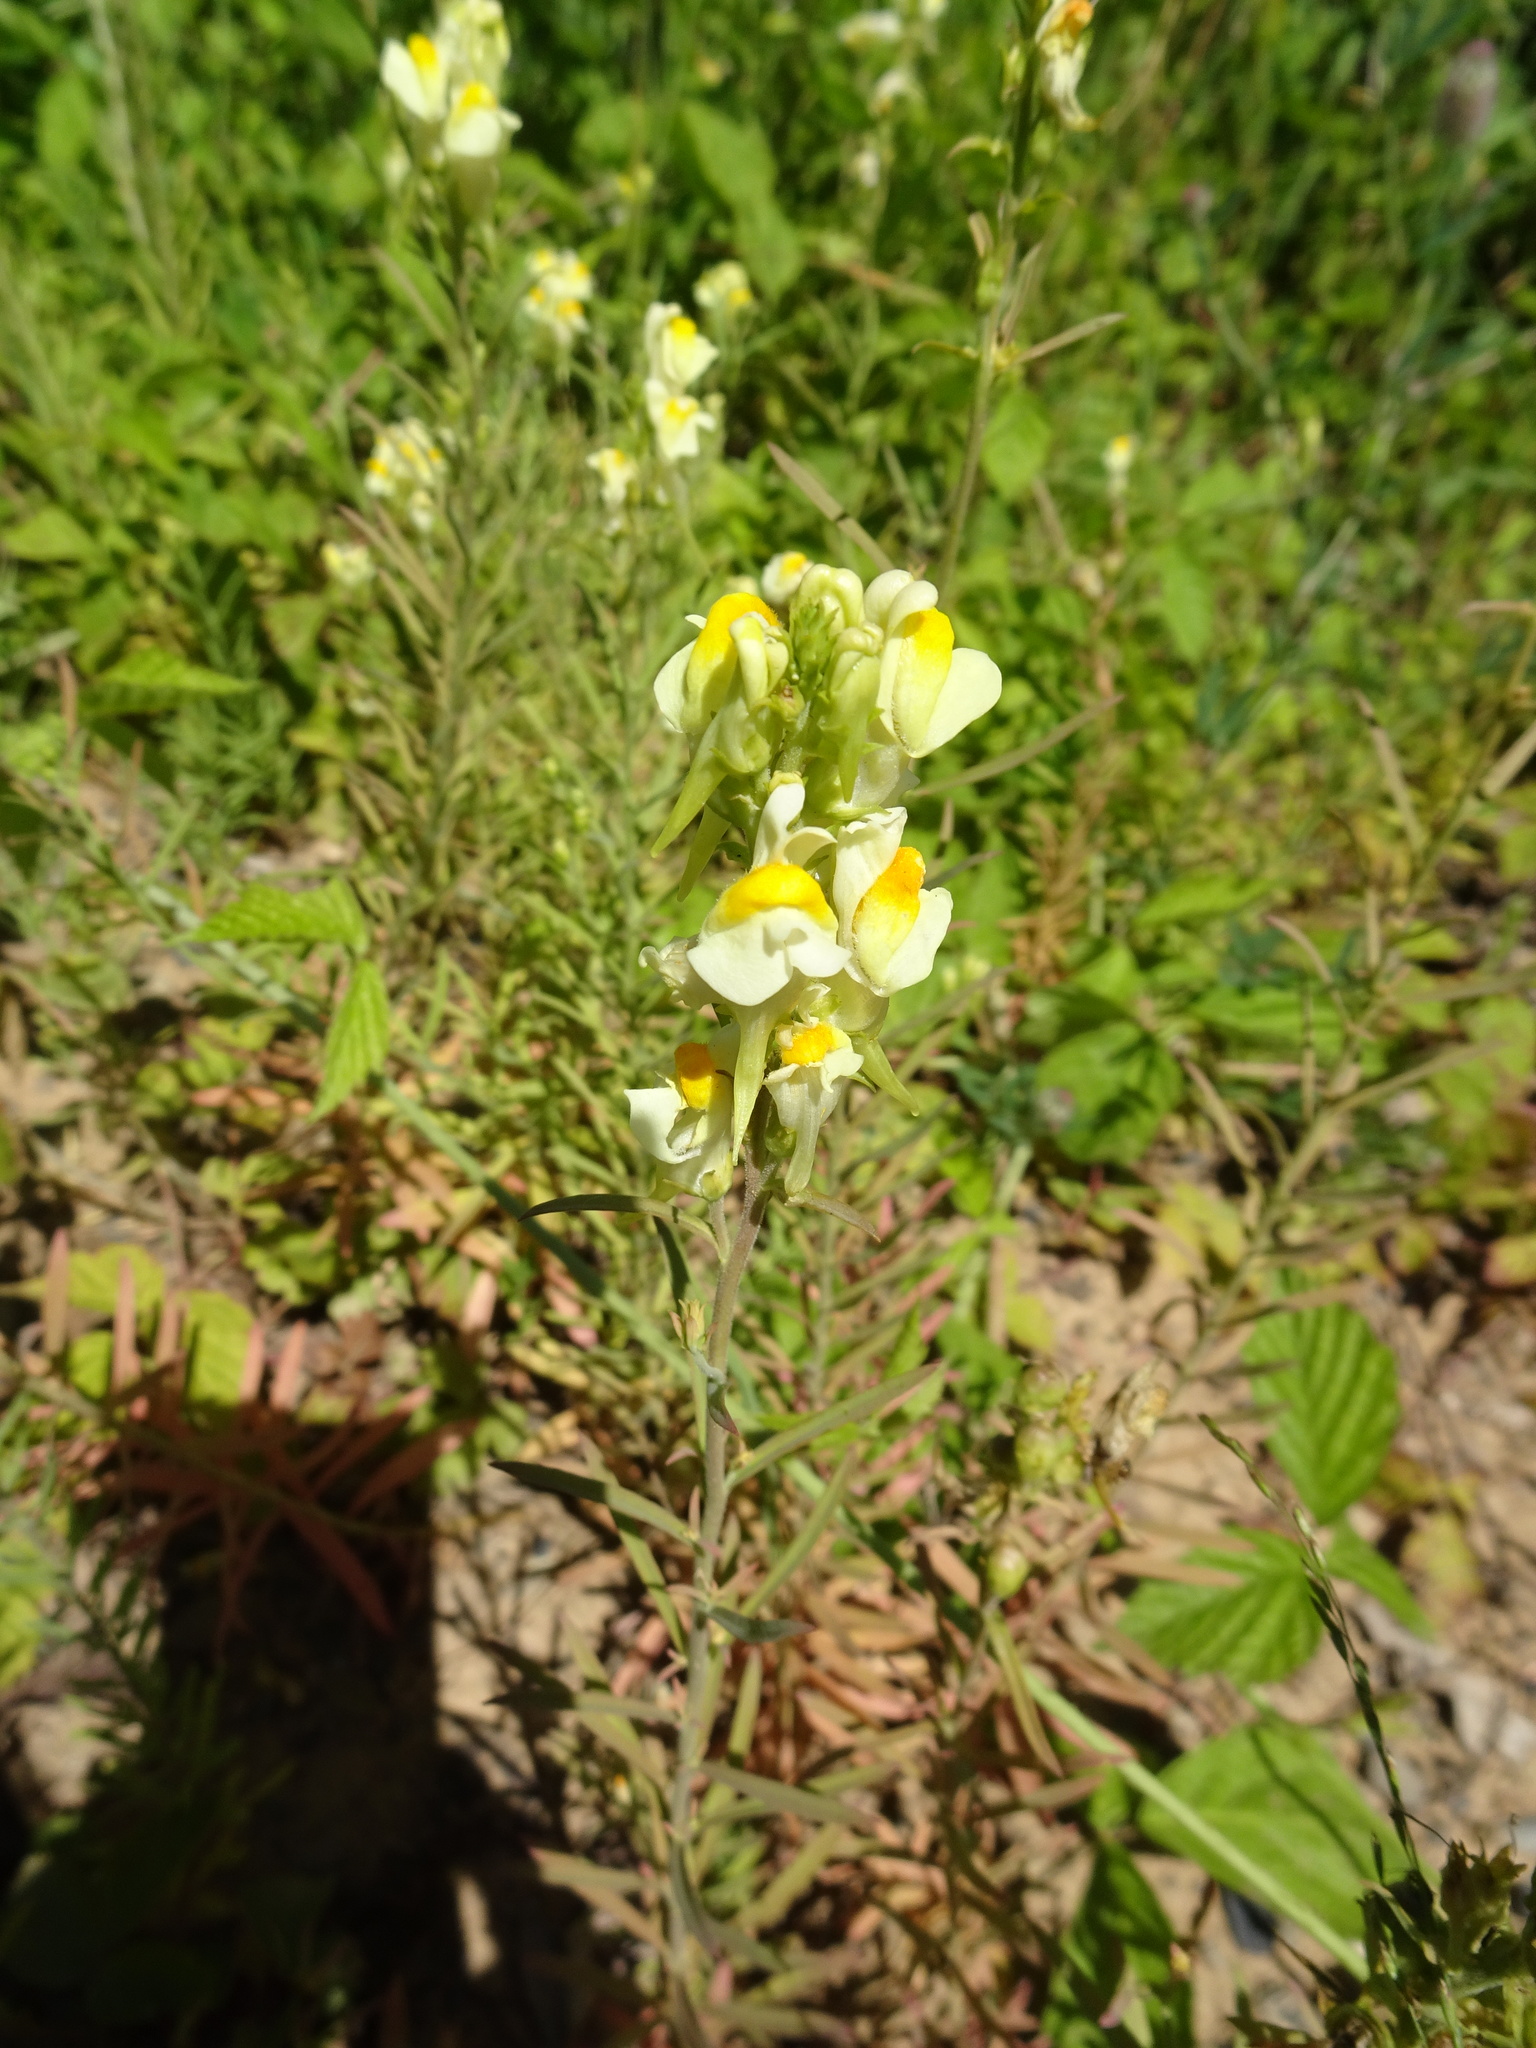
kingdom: Plantae
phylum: Tracheophyta
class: Magnoliopsida
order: Lamiales
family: Plantaginaceae
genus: Linaria
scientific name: Linaria vulgaris
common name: Butter and eggs
